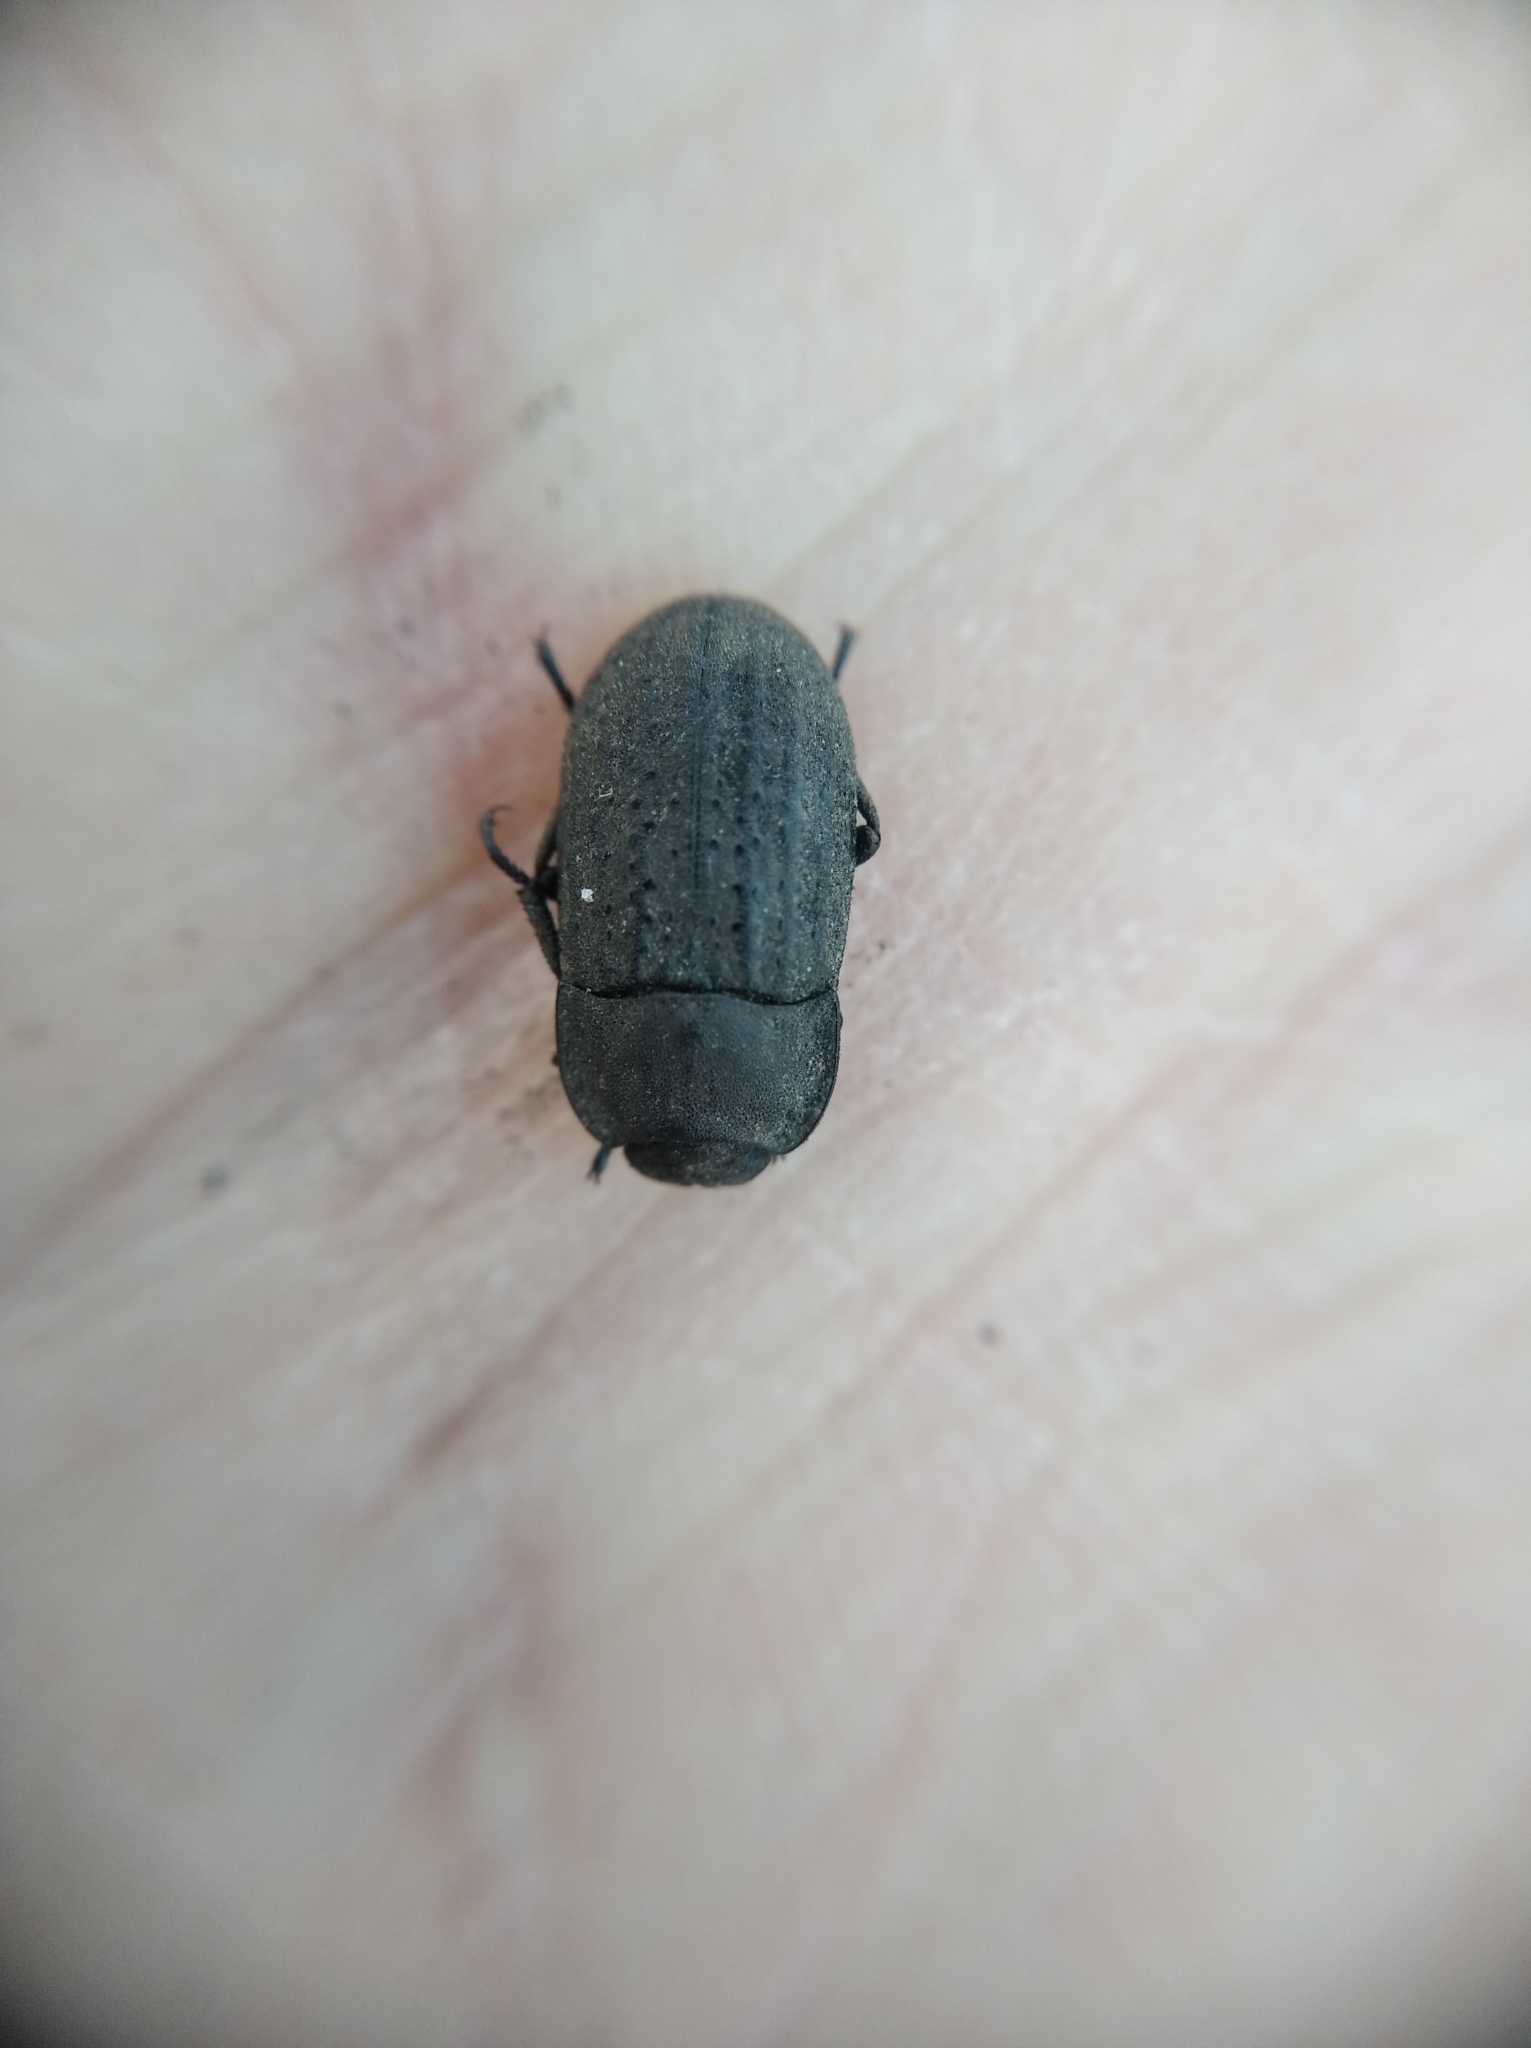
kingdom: Animalia
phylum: Arthropoda
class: Insecta
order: Coleoptera
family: Tenebrionidae
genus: Opatrum
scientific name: Opatrum sabulosum
